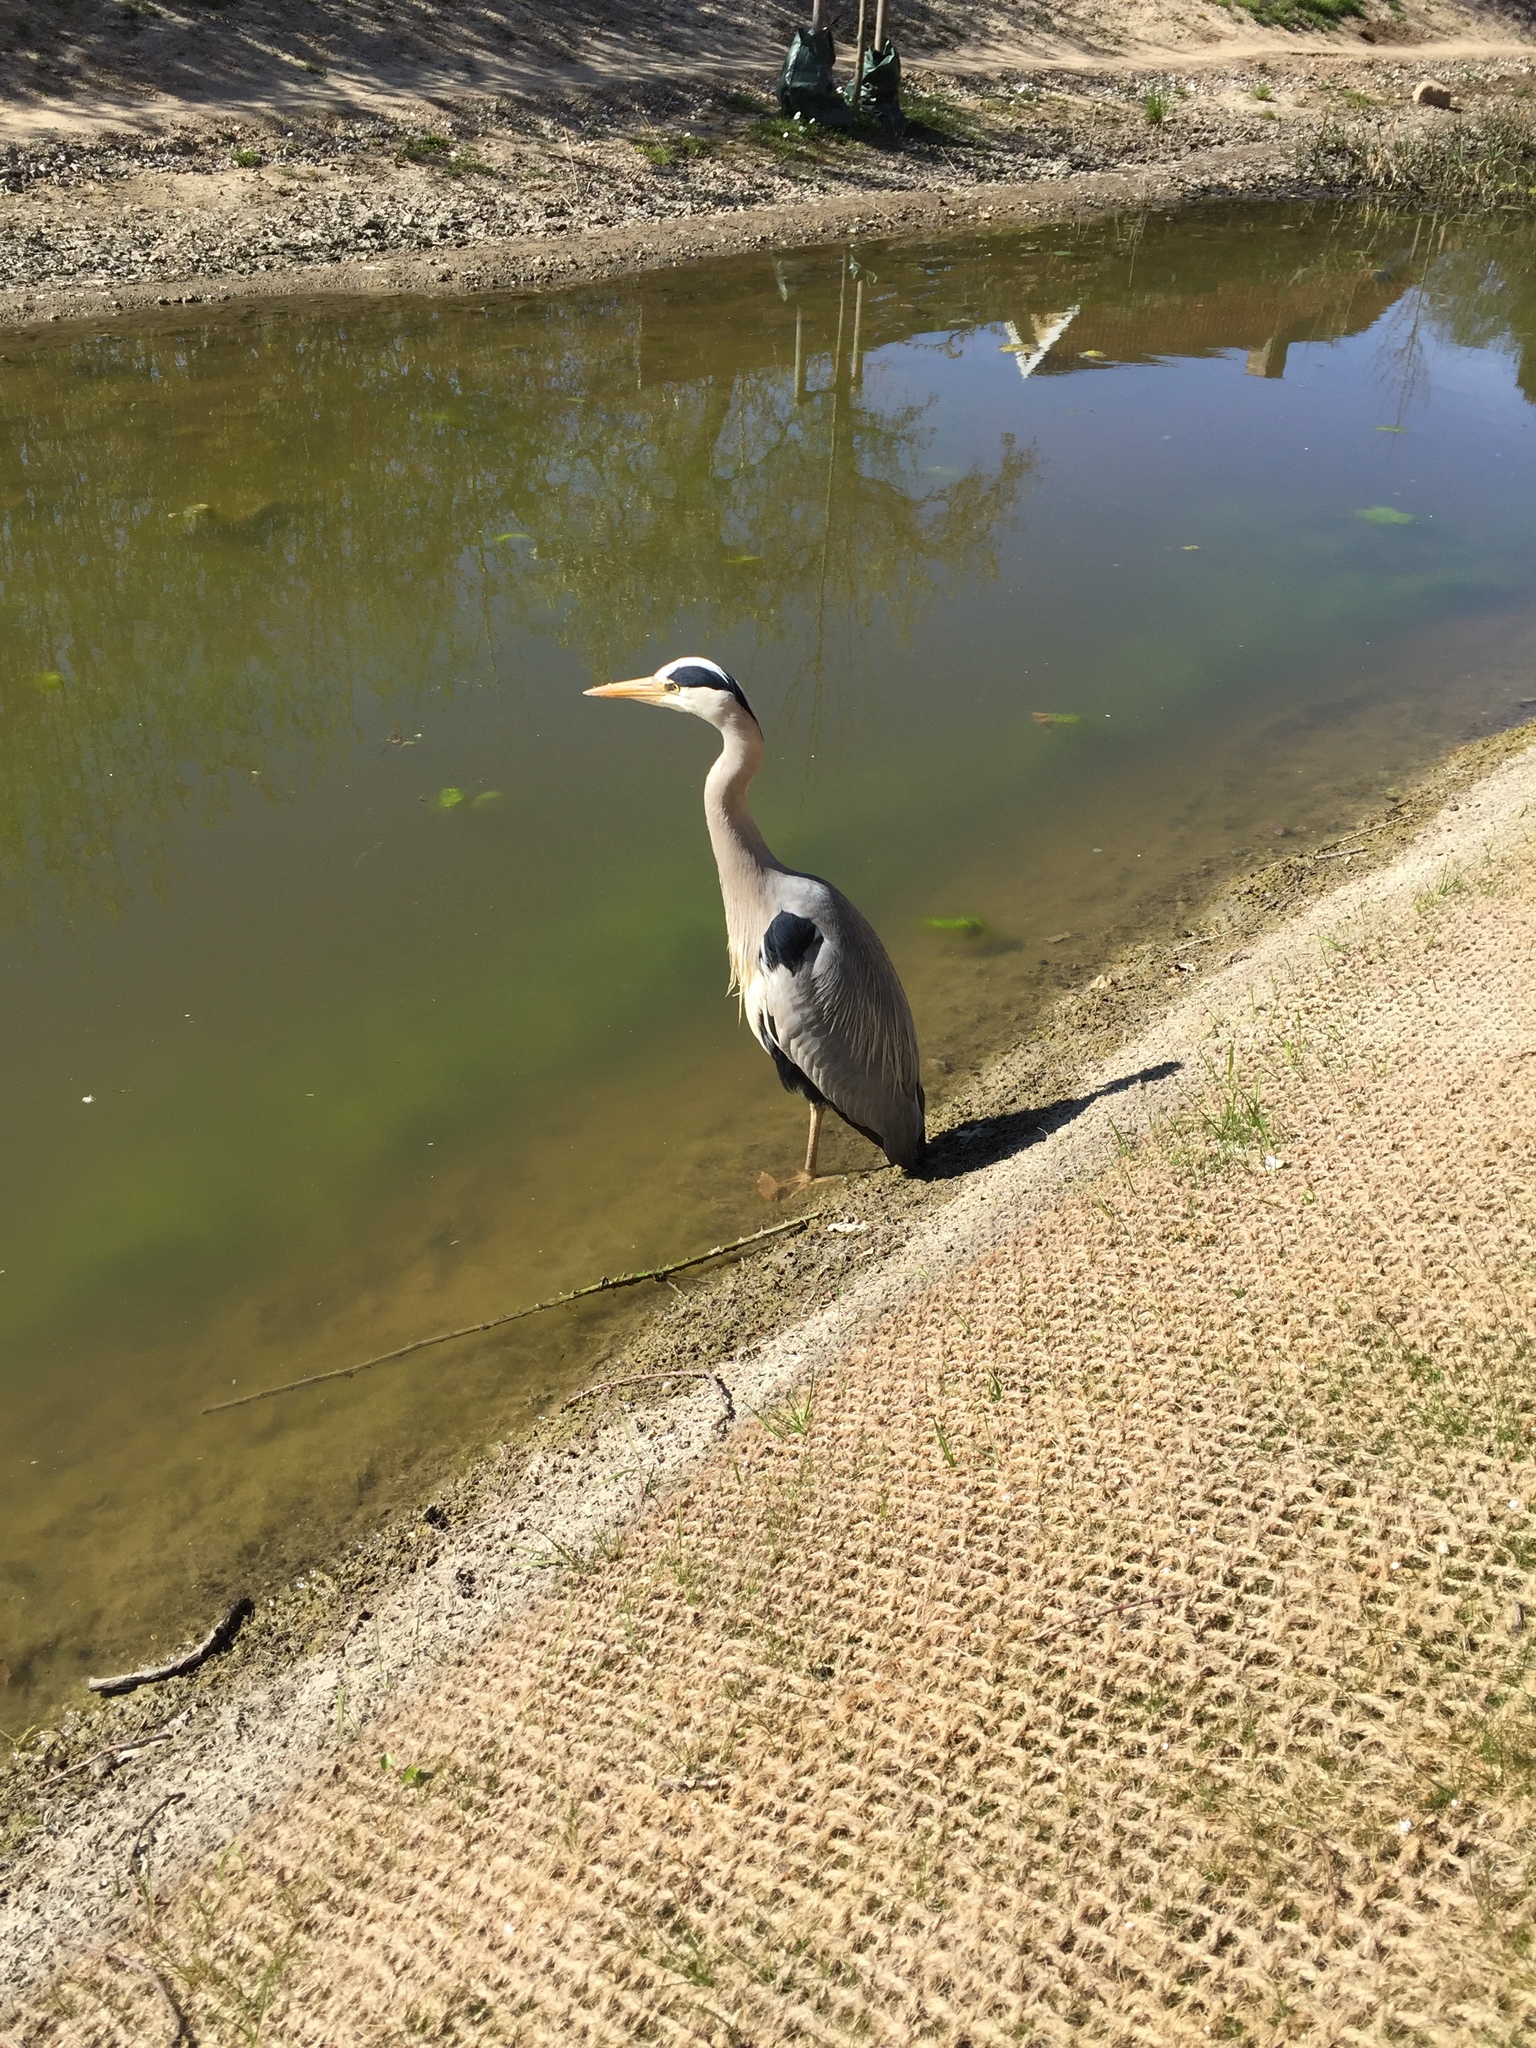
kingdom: Animalia
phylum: Chordata
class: Aves
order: Pelecaniformes
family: Ardeidae
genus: Ardea
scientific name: Ardea cinerea
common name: Grey heron
